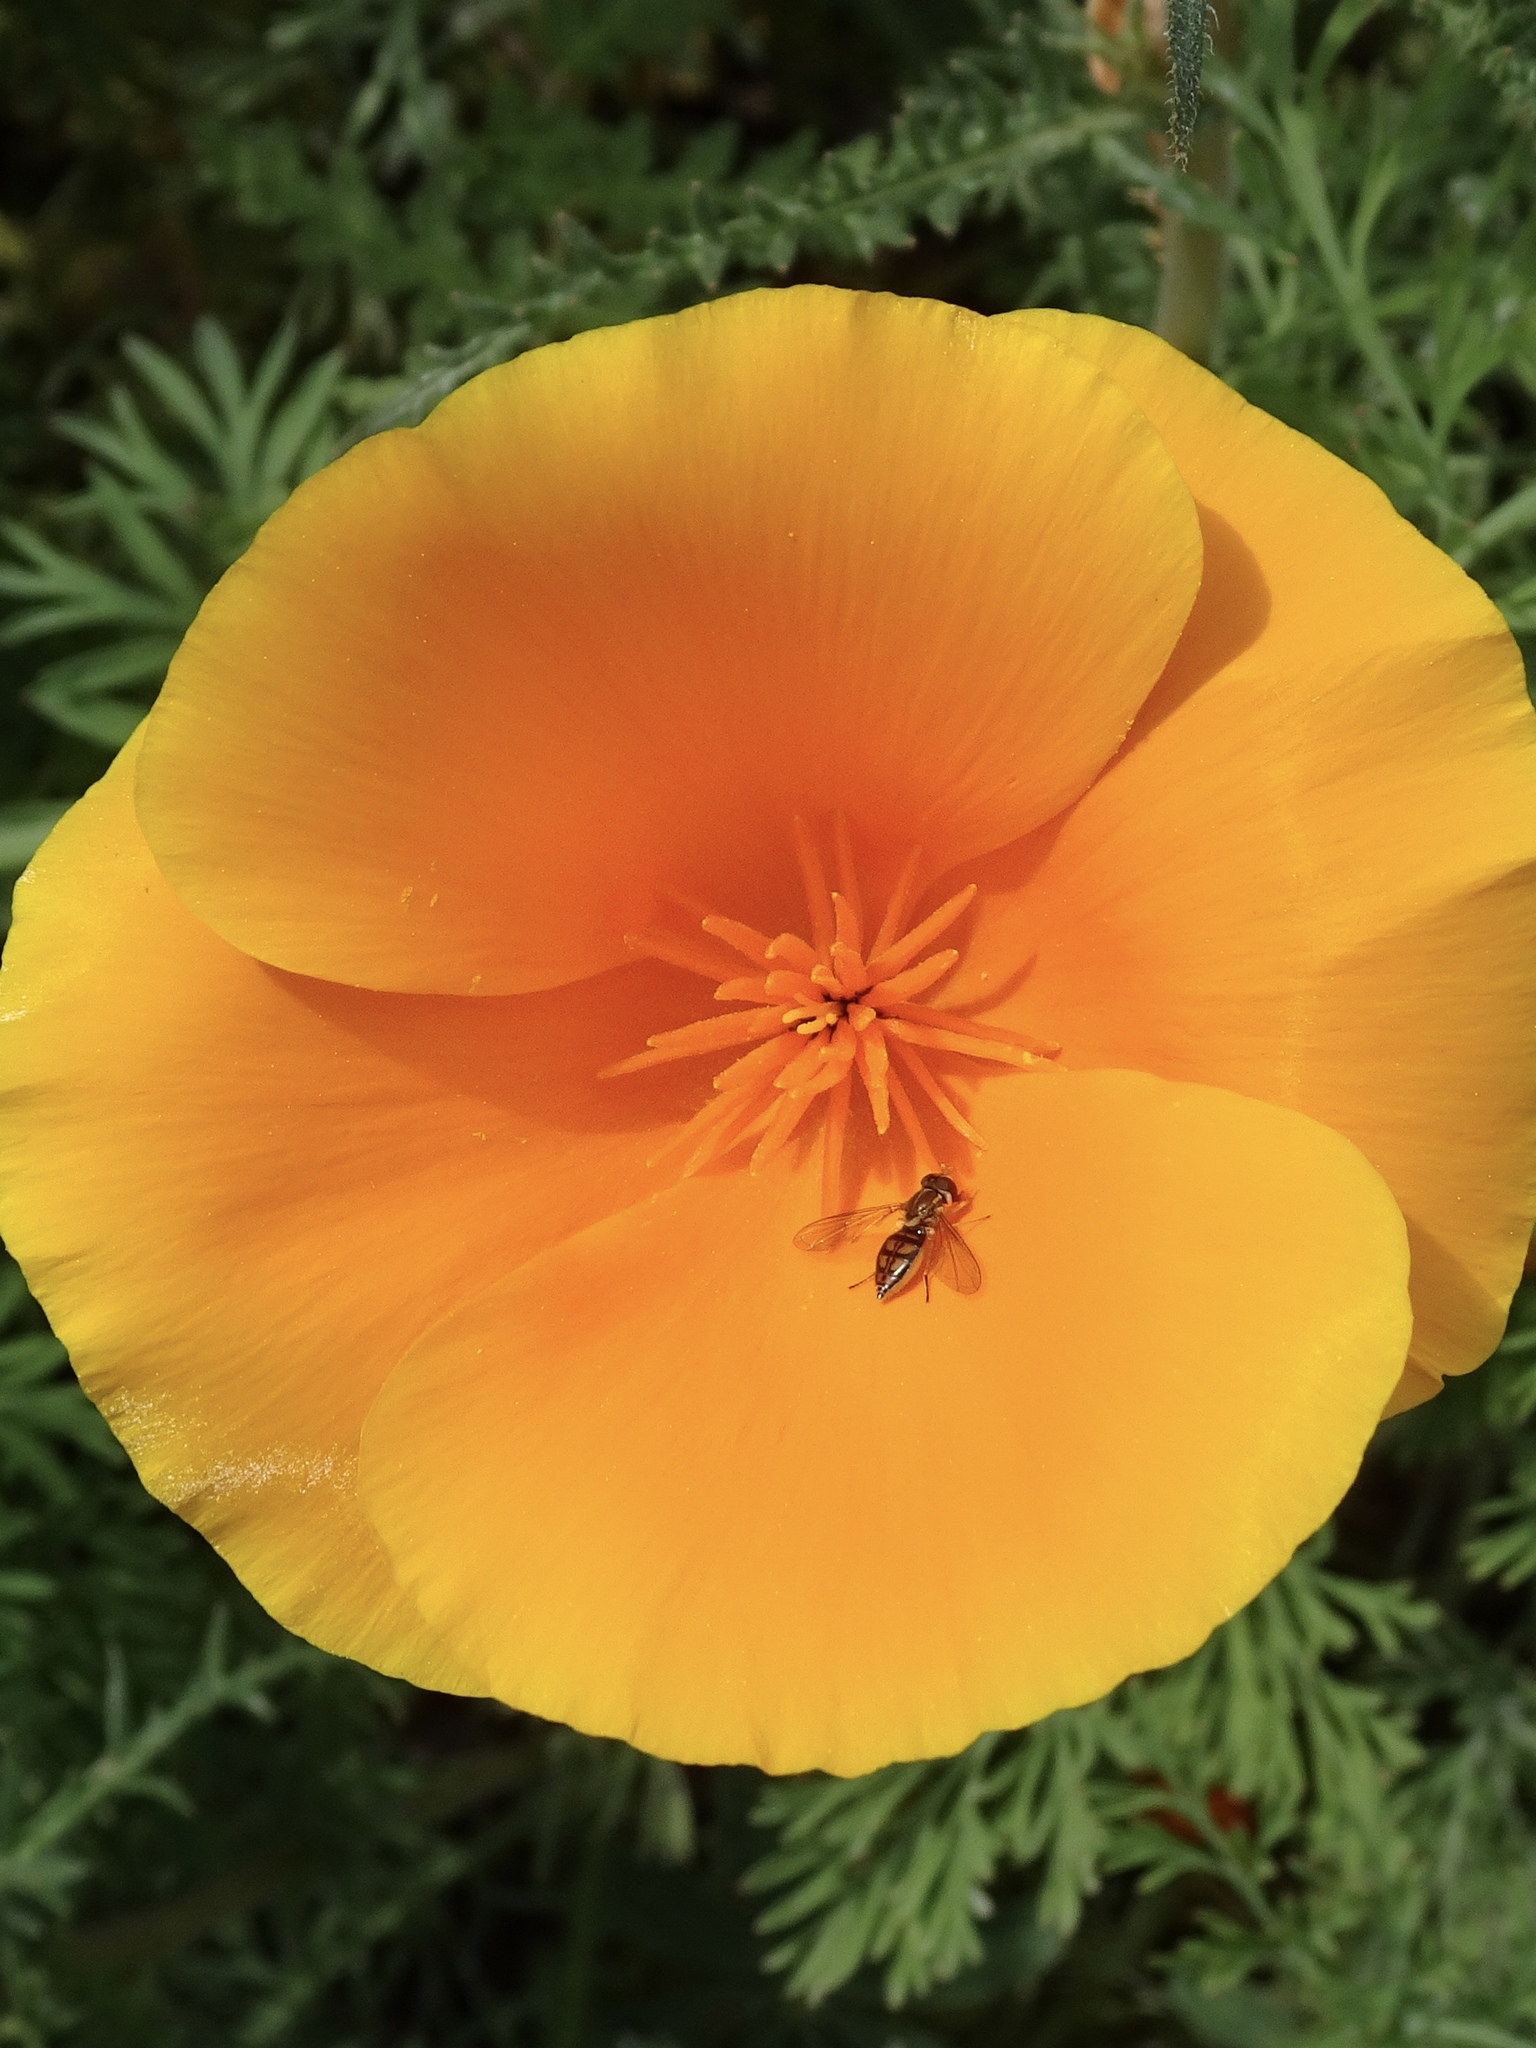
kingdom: Animalia
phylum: Arthropoda
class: Insecta
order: Diptera
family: Syrphidae
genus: Toxomerus
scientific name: Toxomerus marginatus
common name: Syrphid fly
